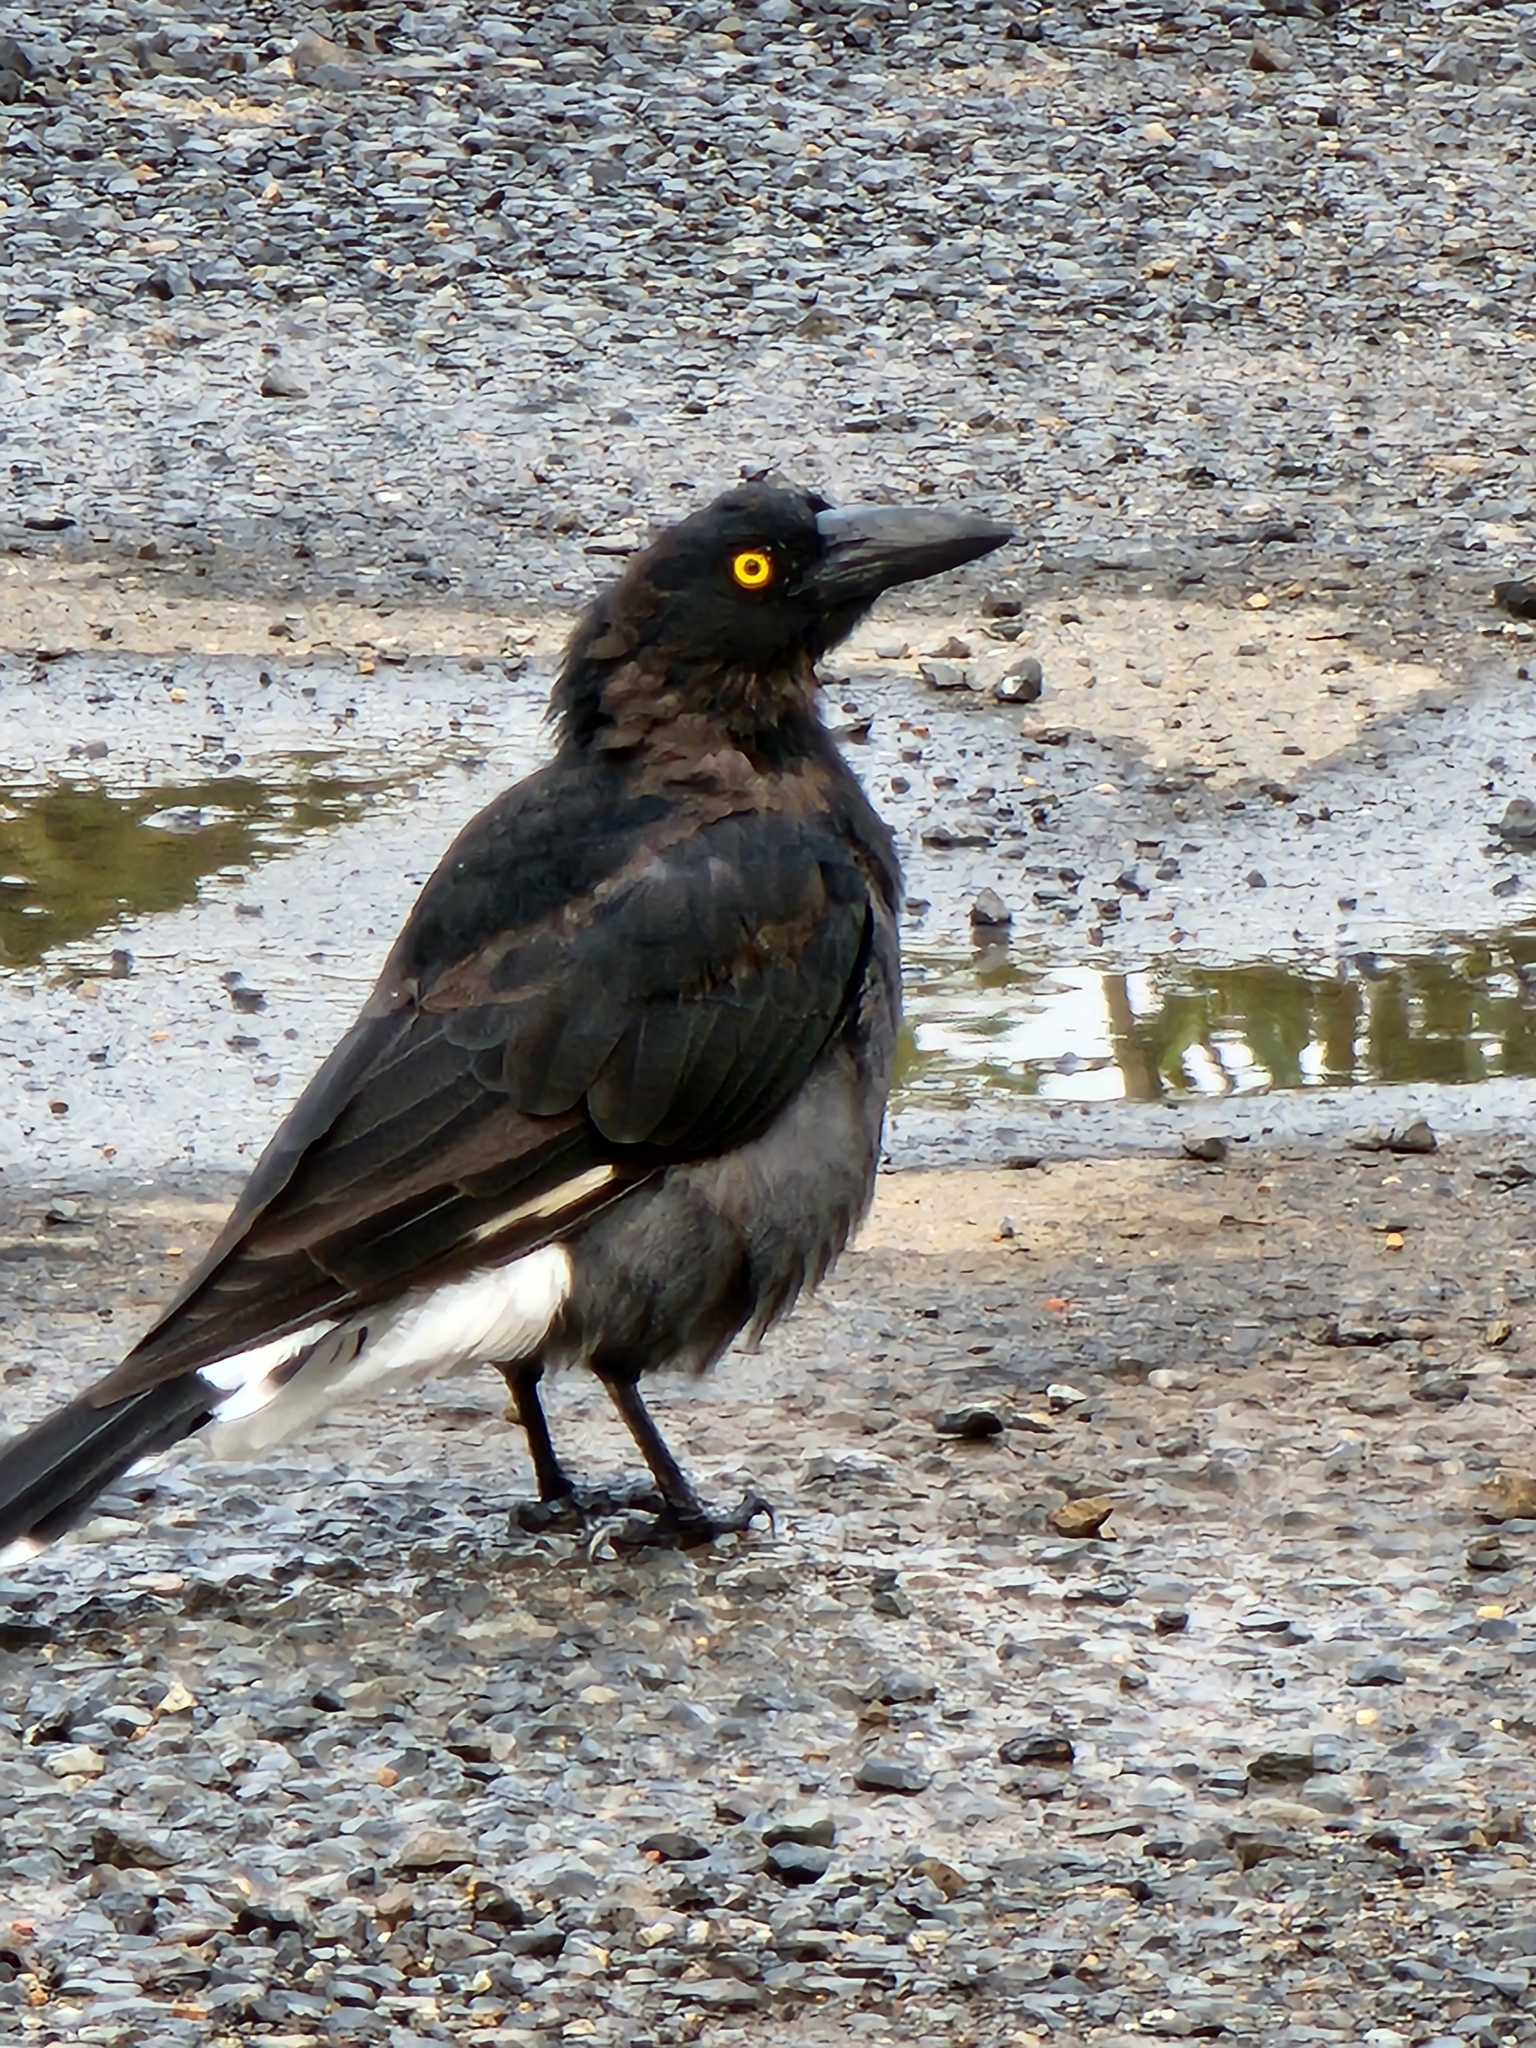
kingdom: Animalia
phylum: Chordata
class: Aves
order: Passeriformes
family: Cracticidae
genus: Strepera
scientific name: Strepera graculina
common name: Pied currawong
